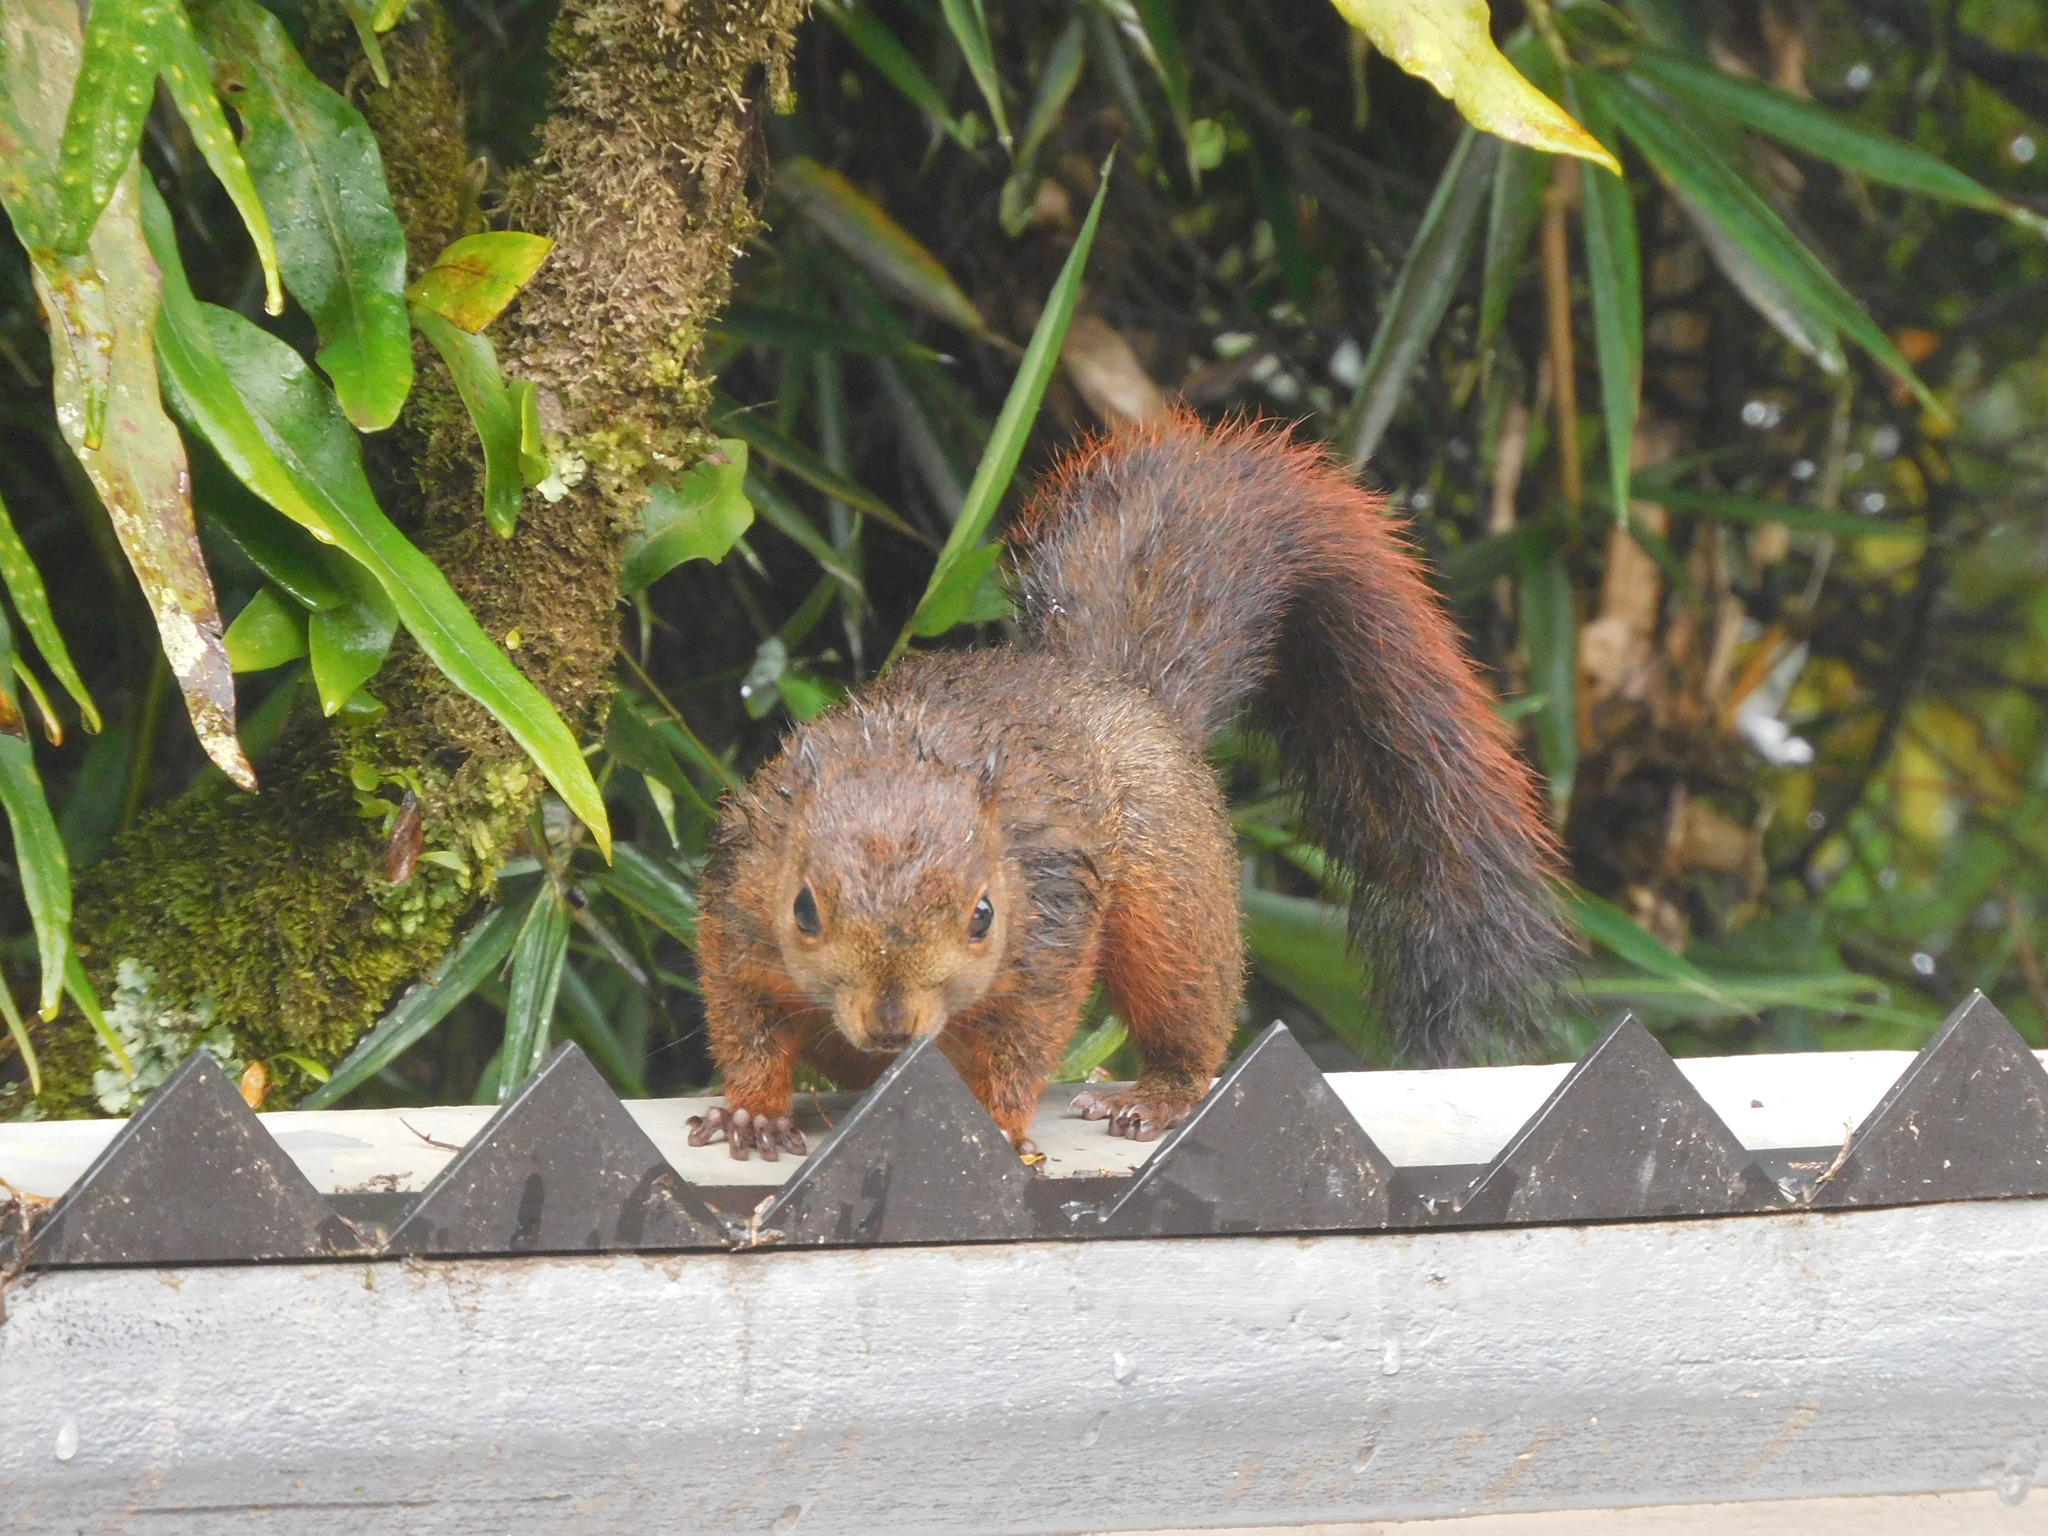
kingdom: Animalia
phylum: Chordata
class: Mammalia
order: Rodentia
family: Sciuridae
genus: Sciurus
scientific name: Sciurus granatensis
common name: Red-tailed squirrel
